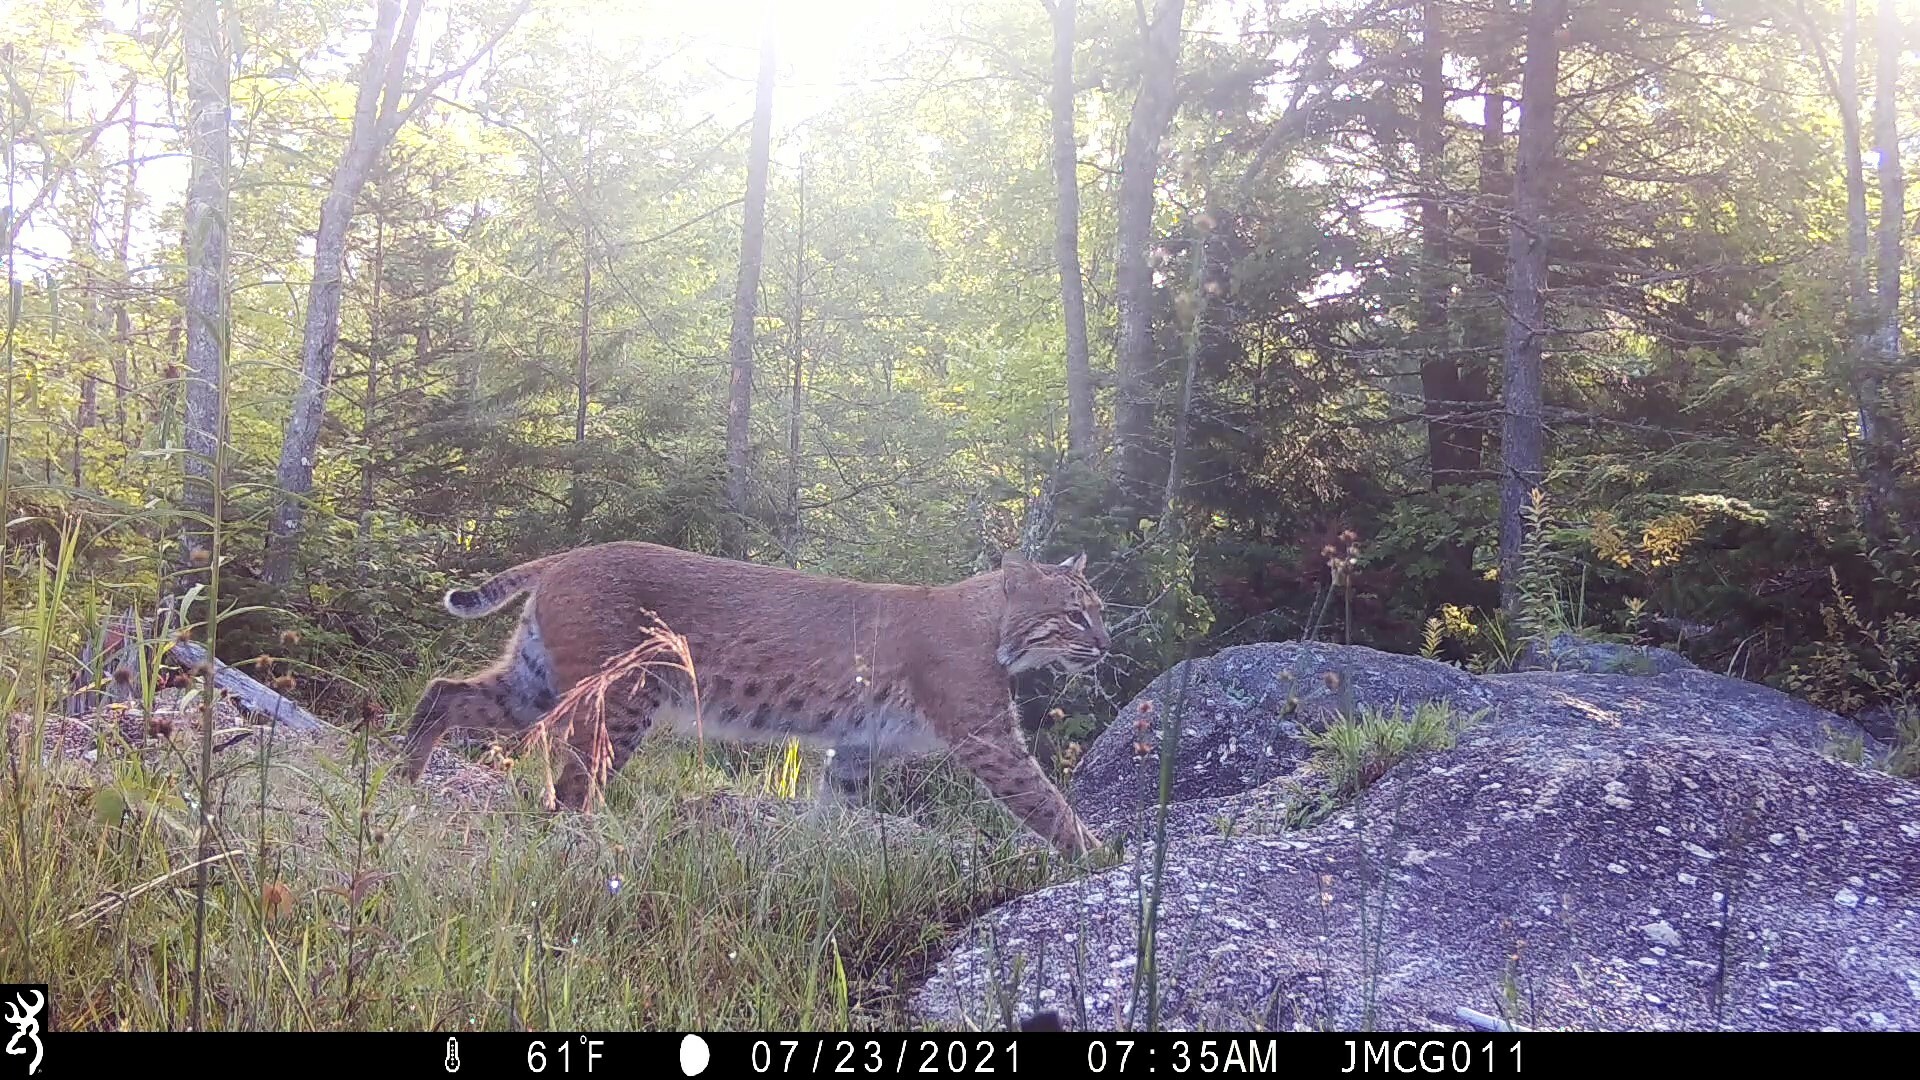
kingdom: Animalia
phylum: Chordata
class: Mammalia
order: Carnivora
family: Felidae
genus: Lynx
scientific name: Lynx rufus
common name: Bobcat
